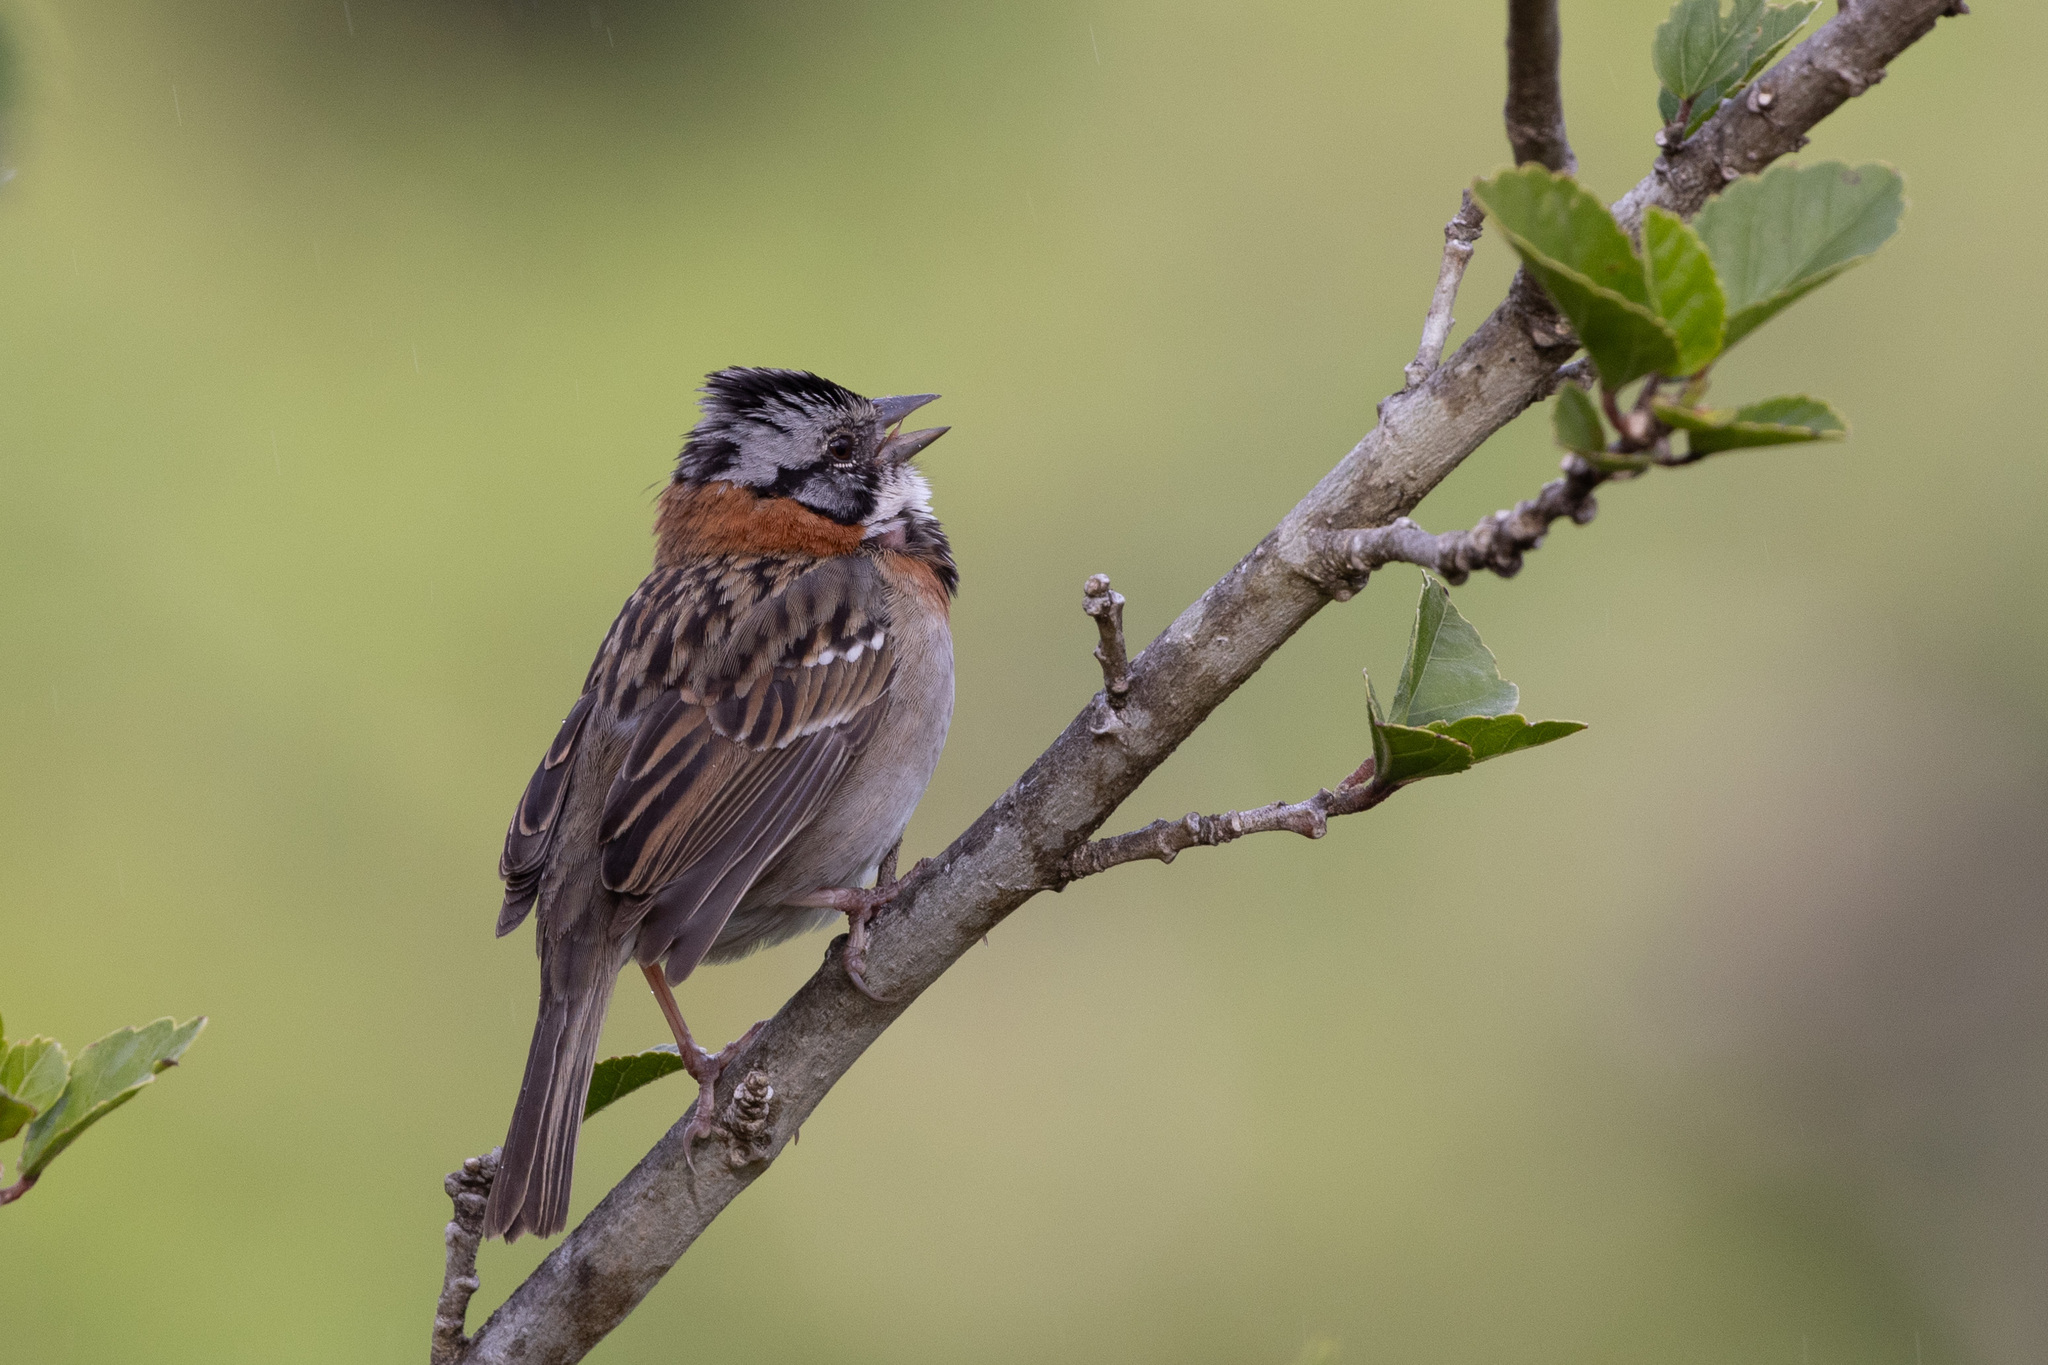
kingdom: Animalia
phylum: Chordata
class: Aves
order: Passeriformes
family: Passerellidae
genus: Zonotrichia
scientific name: Zonotrichia capensis
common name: Rufous-collared sparrow
